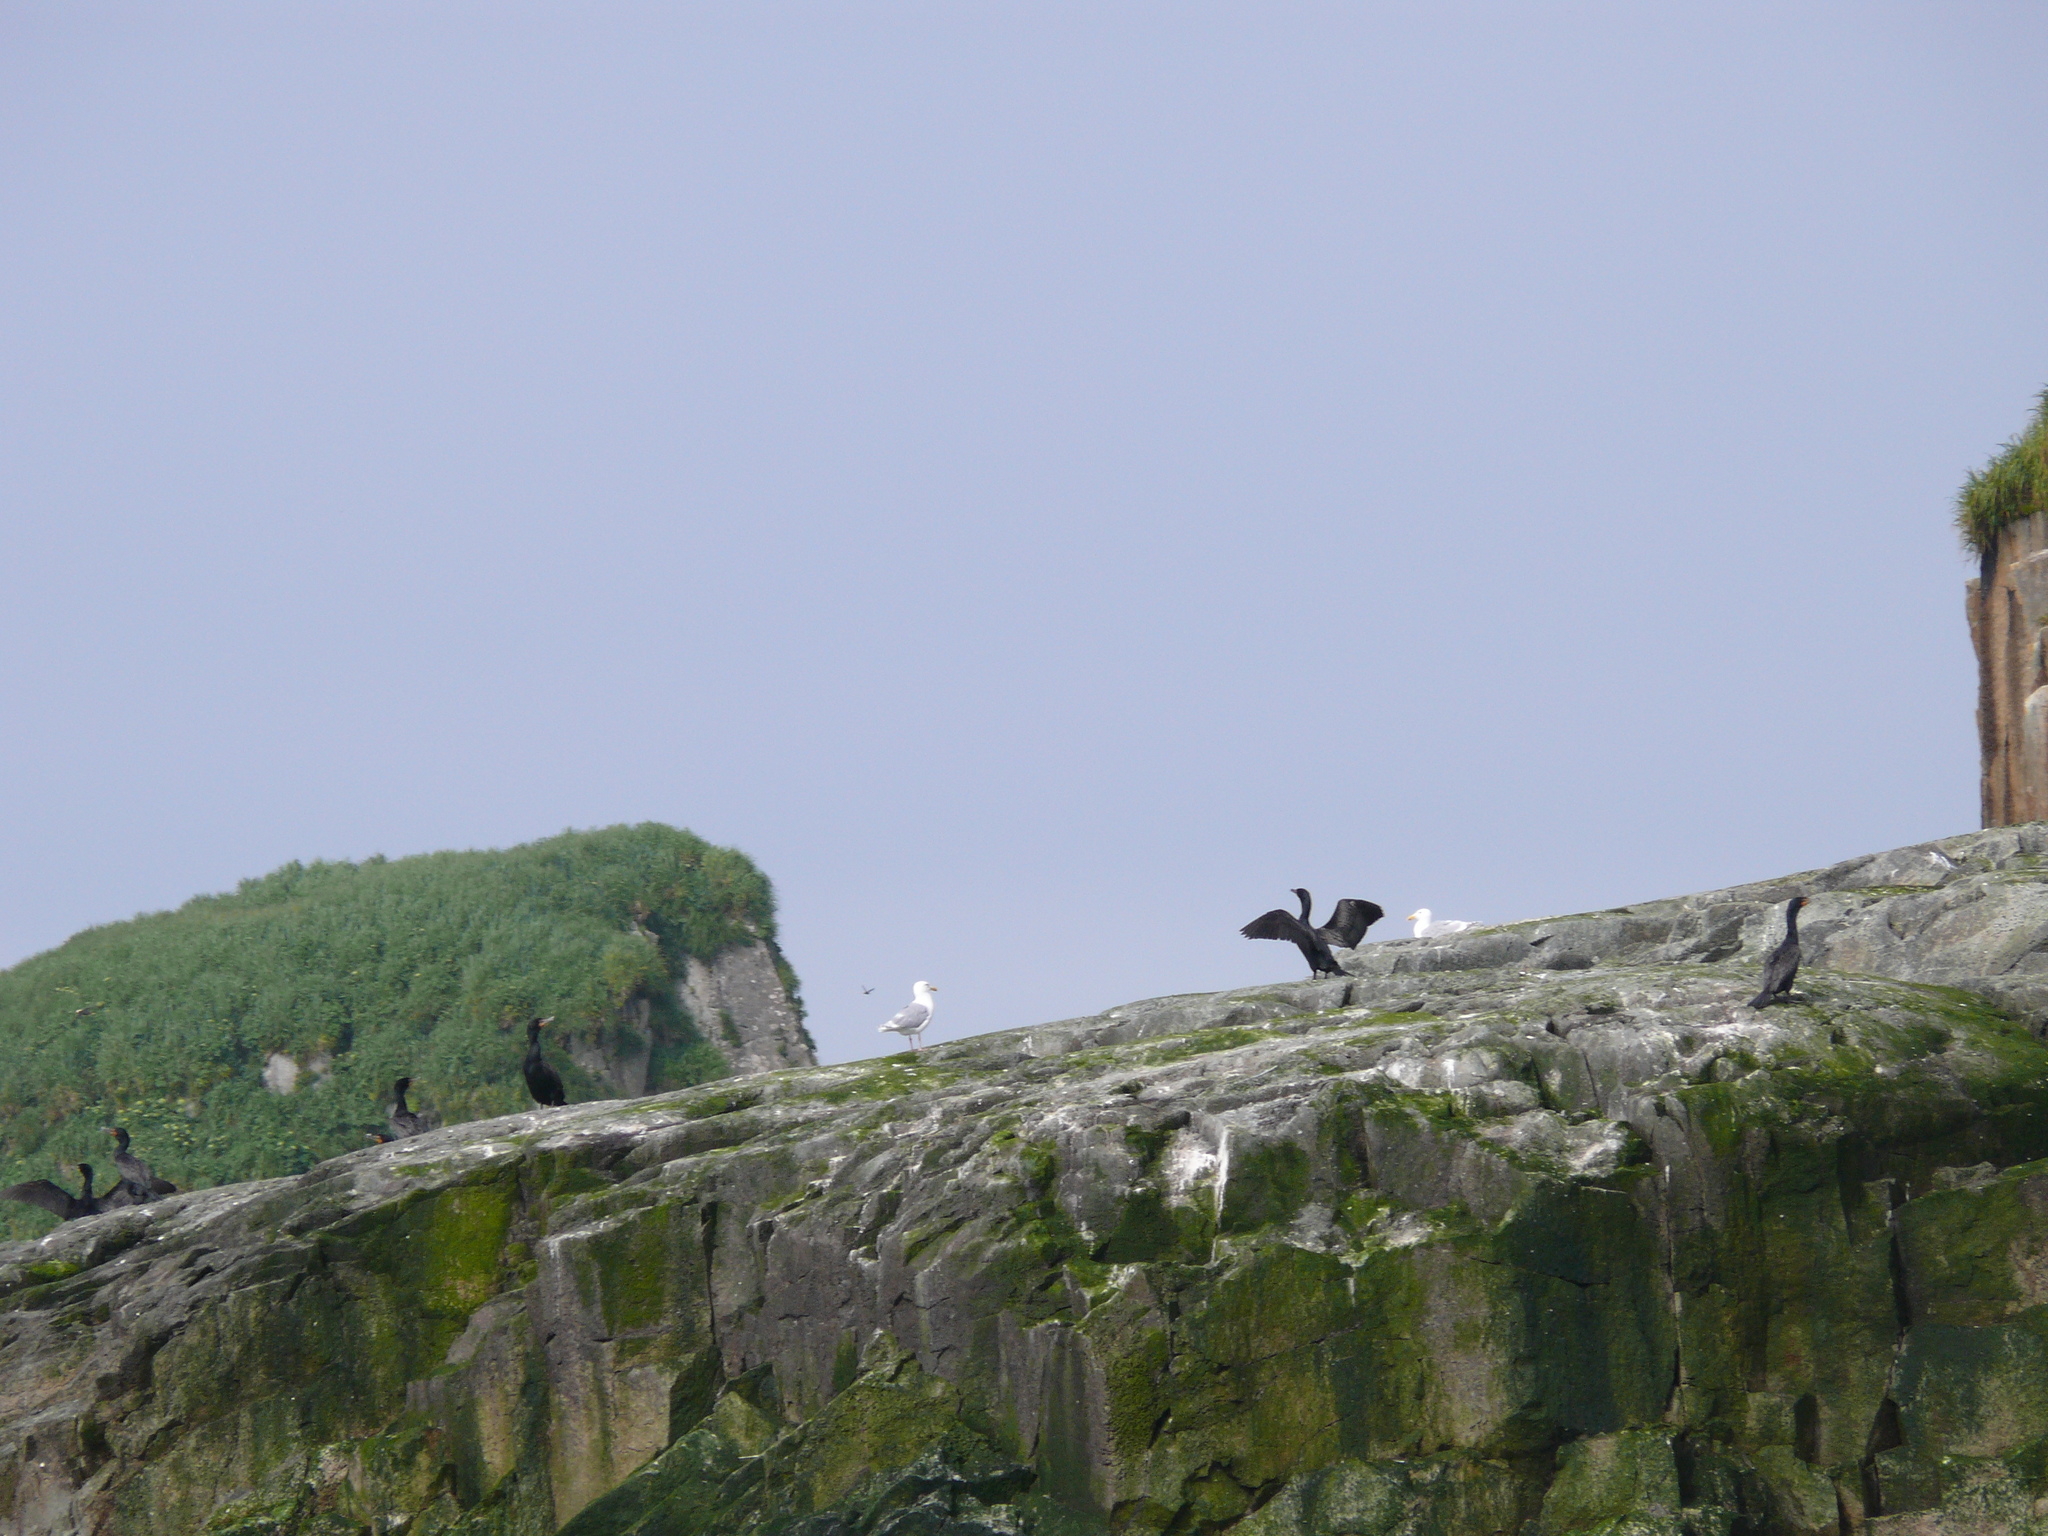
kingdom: Animalia
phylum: Chordata
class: Aves
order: Suliformes
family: Phalacrocoracidae
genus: Phalacrocorax
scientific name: Phalacrocorax auritus
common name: Double-crested cormorant
